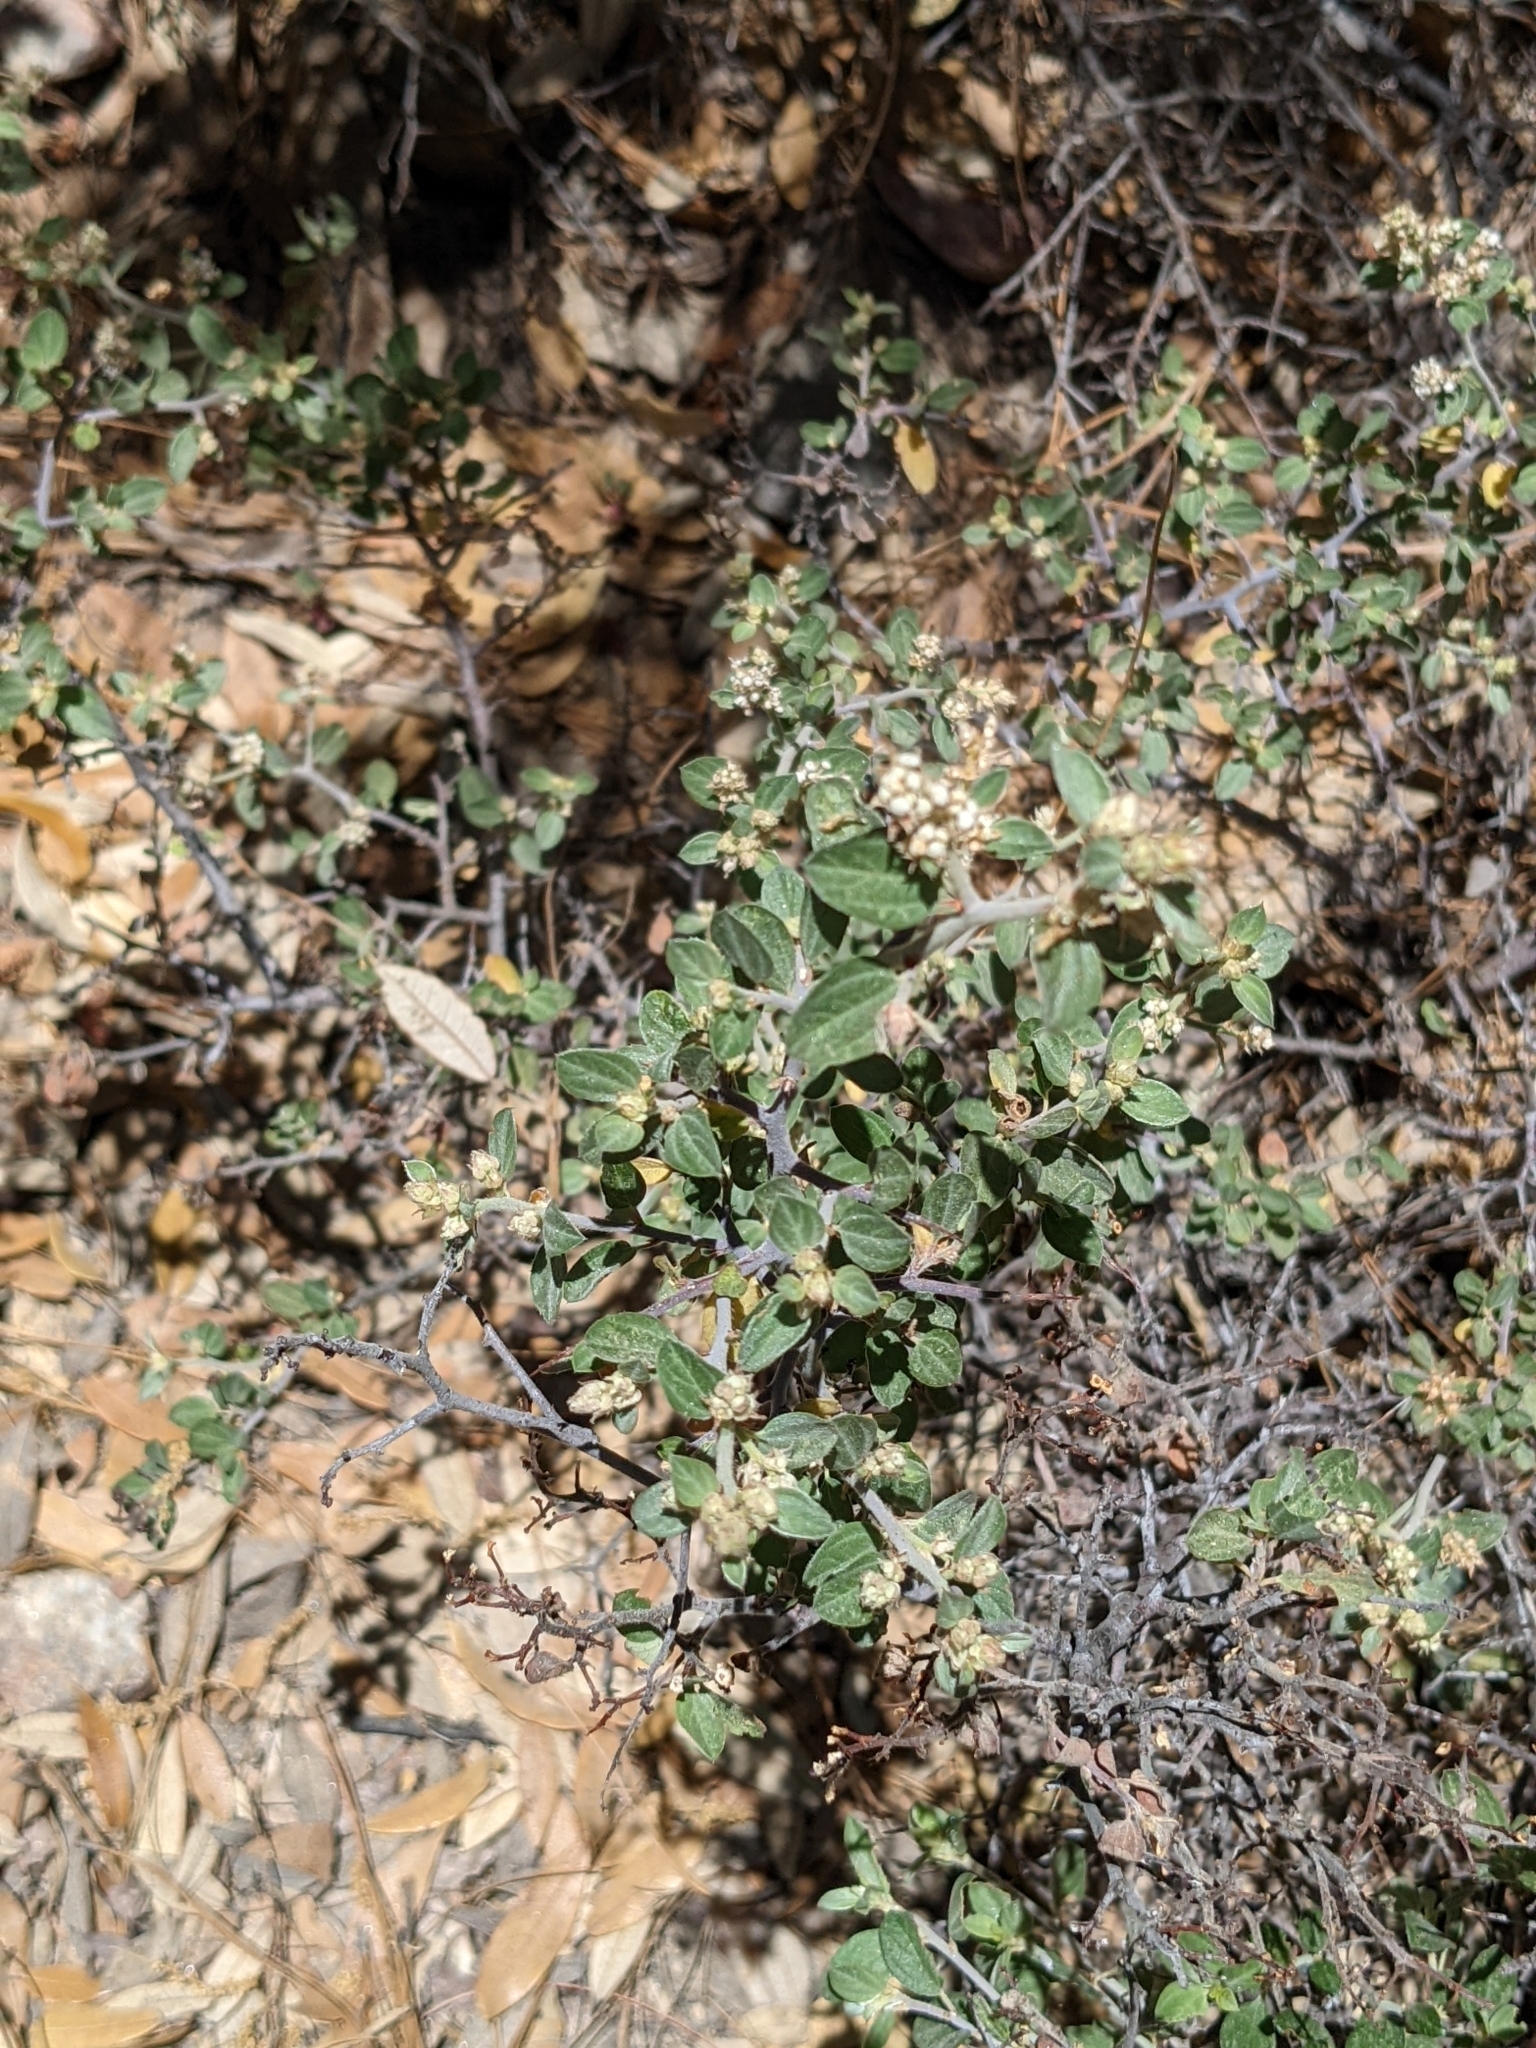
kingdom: Plantae
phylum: Tracheophyta
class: Magnoliopsida
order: Rosales
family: Rhamnaceae
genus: Ceanothus
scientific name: Ceanothus fendleri
